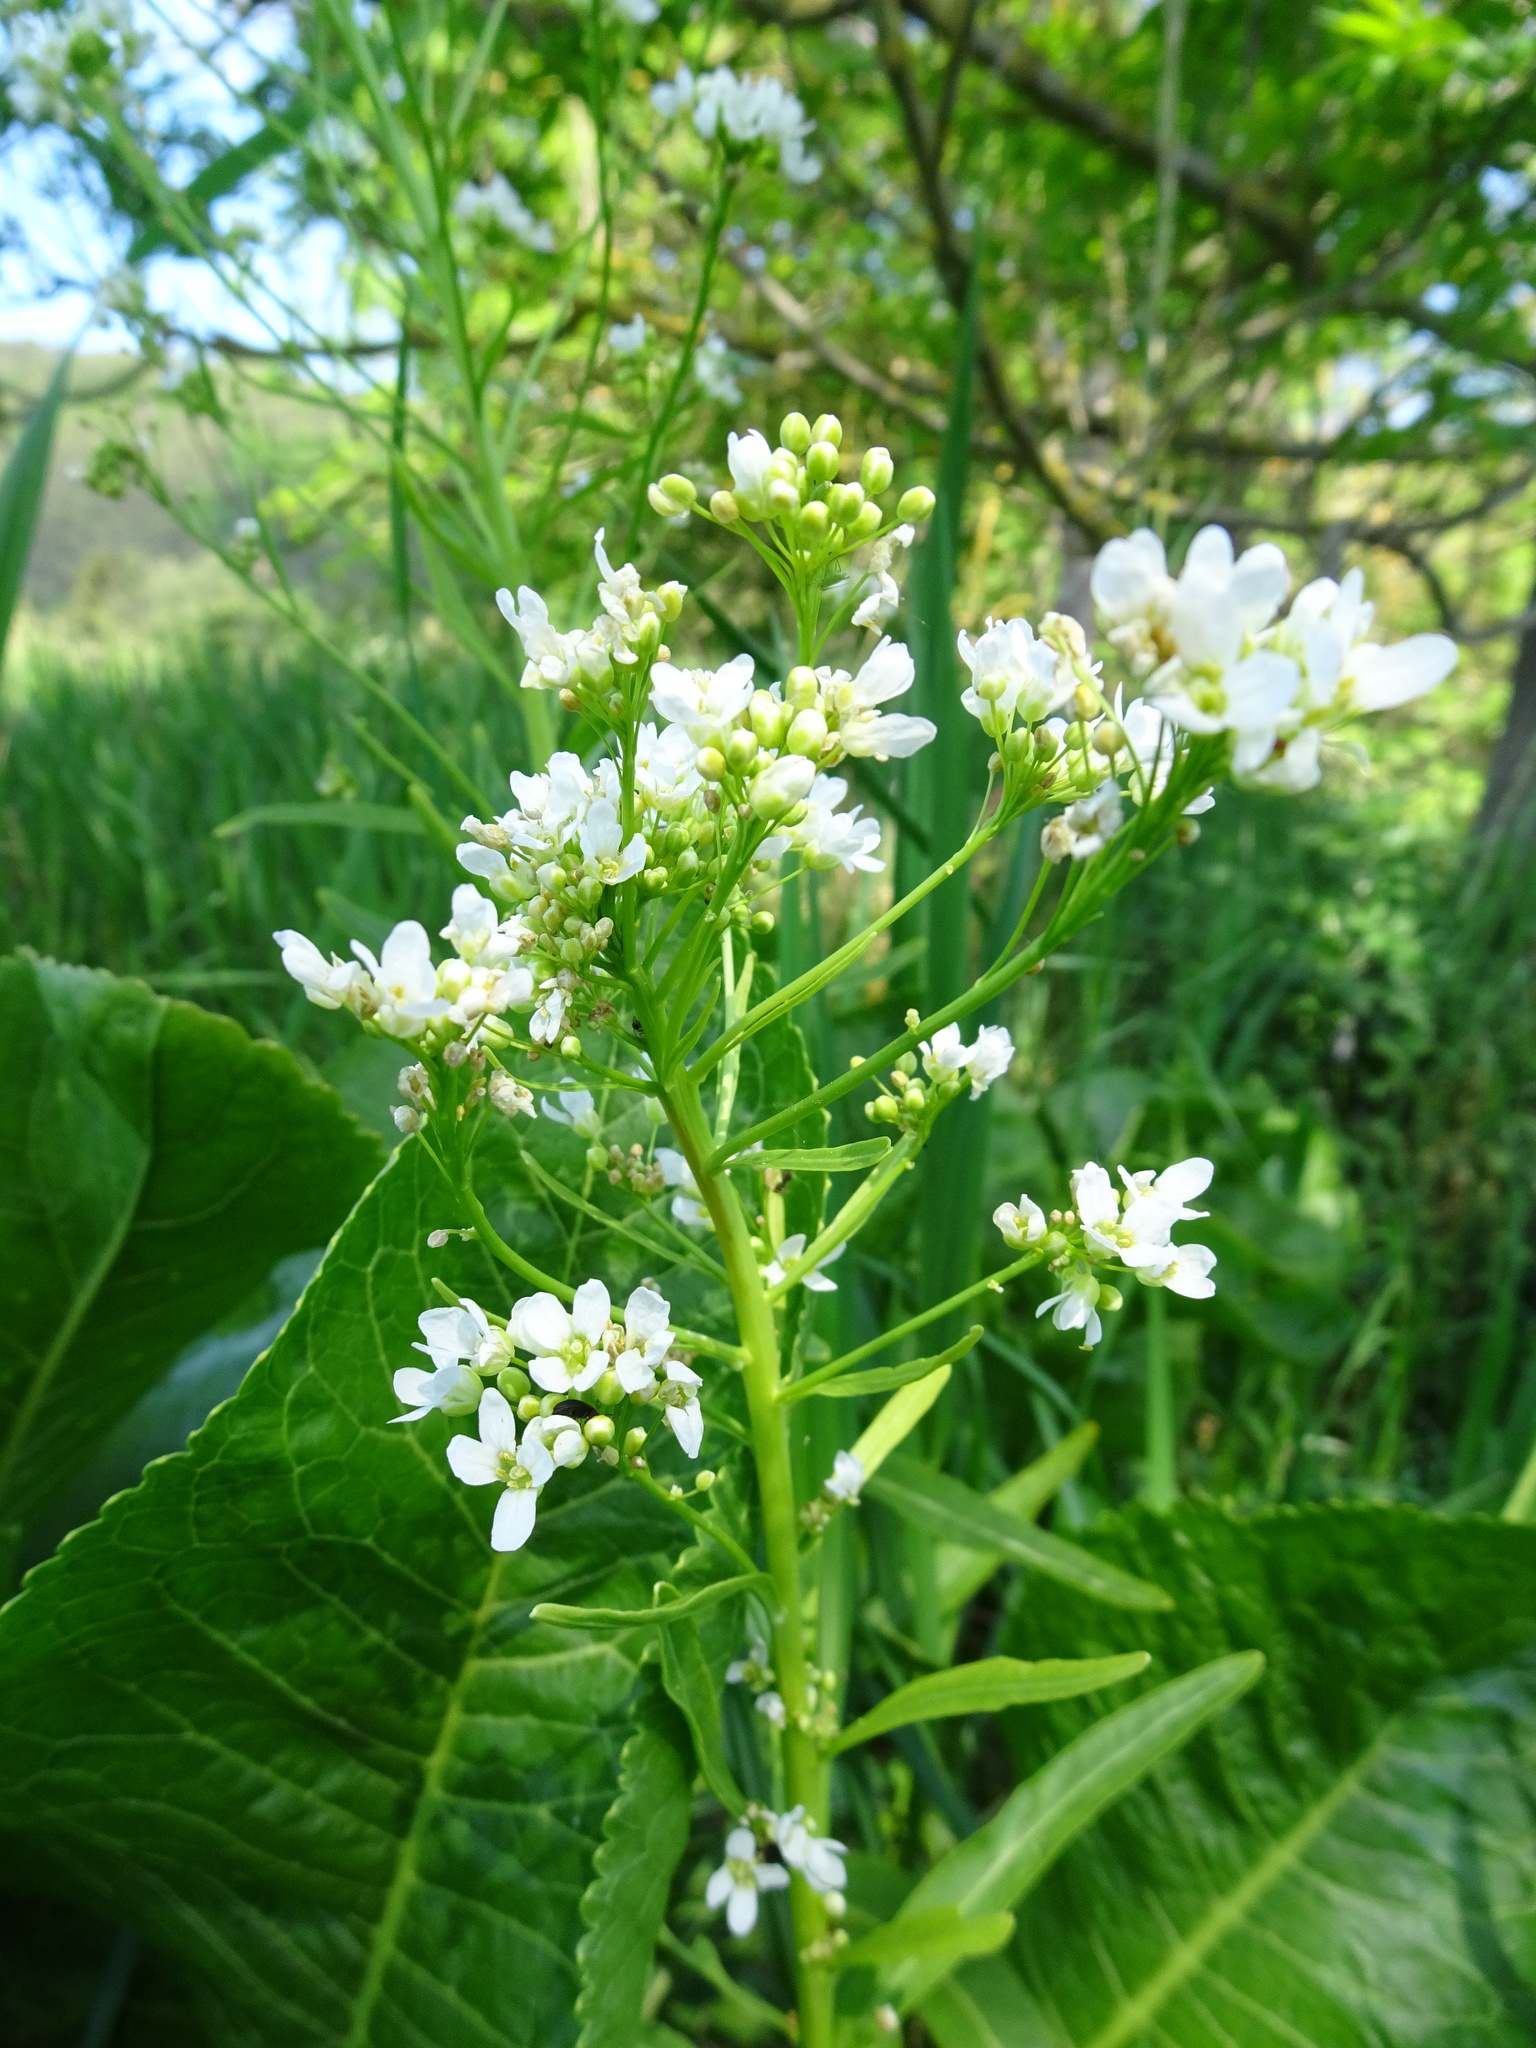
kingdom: Plantae
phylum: Tracheophyta
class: Magnoliopsida
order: Brassicales
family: Brassicaceae
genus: Armoracia
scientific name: Armoracia rusticana
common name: Horseradish
